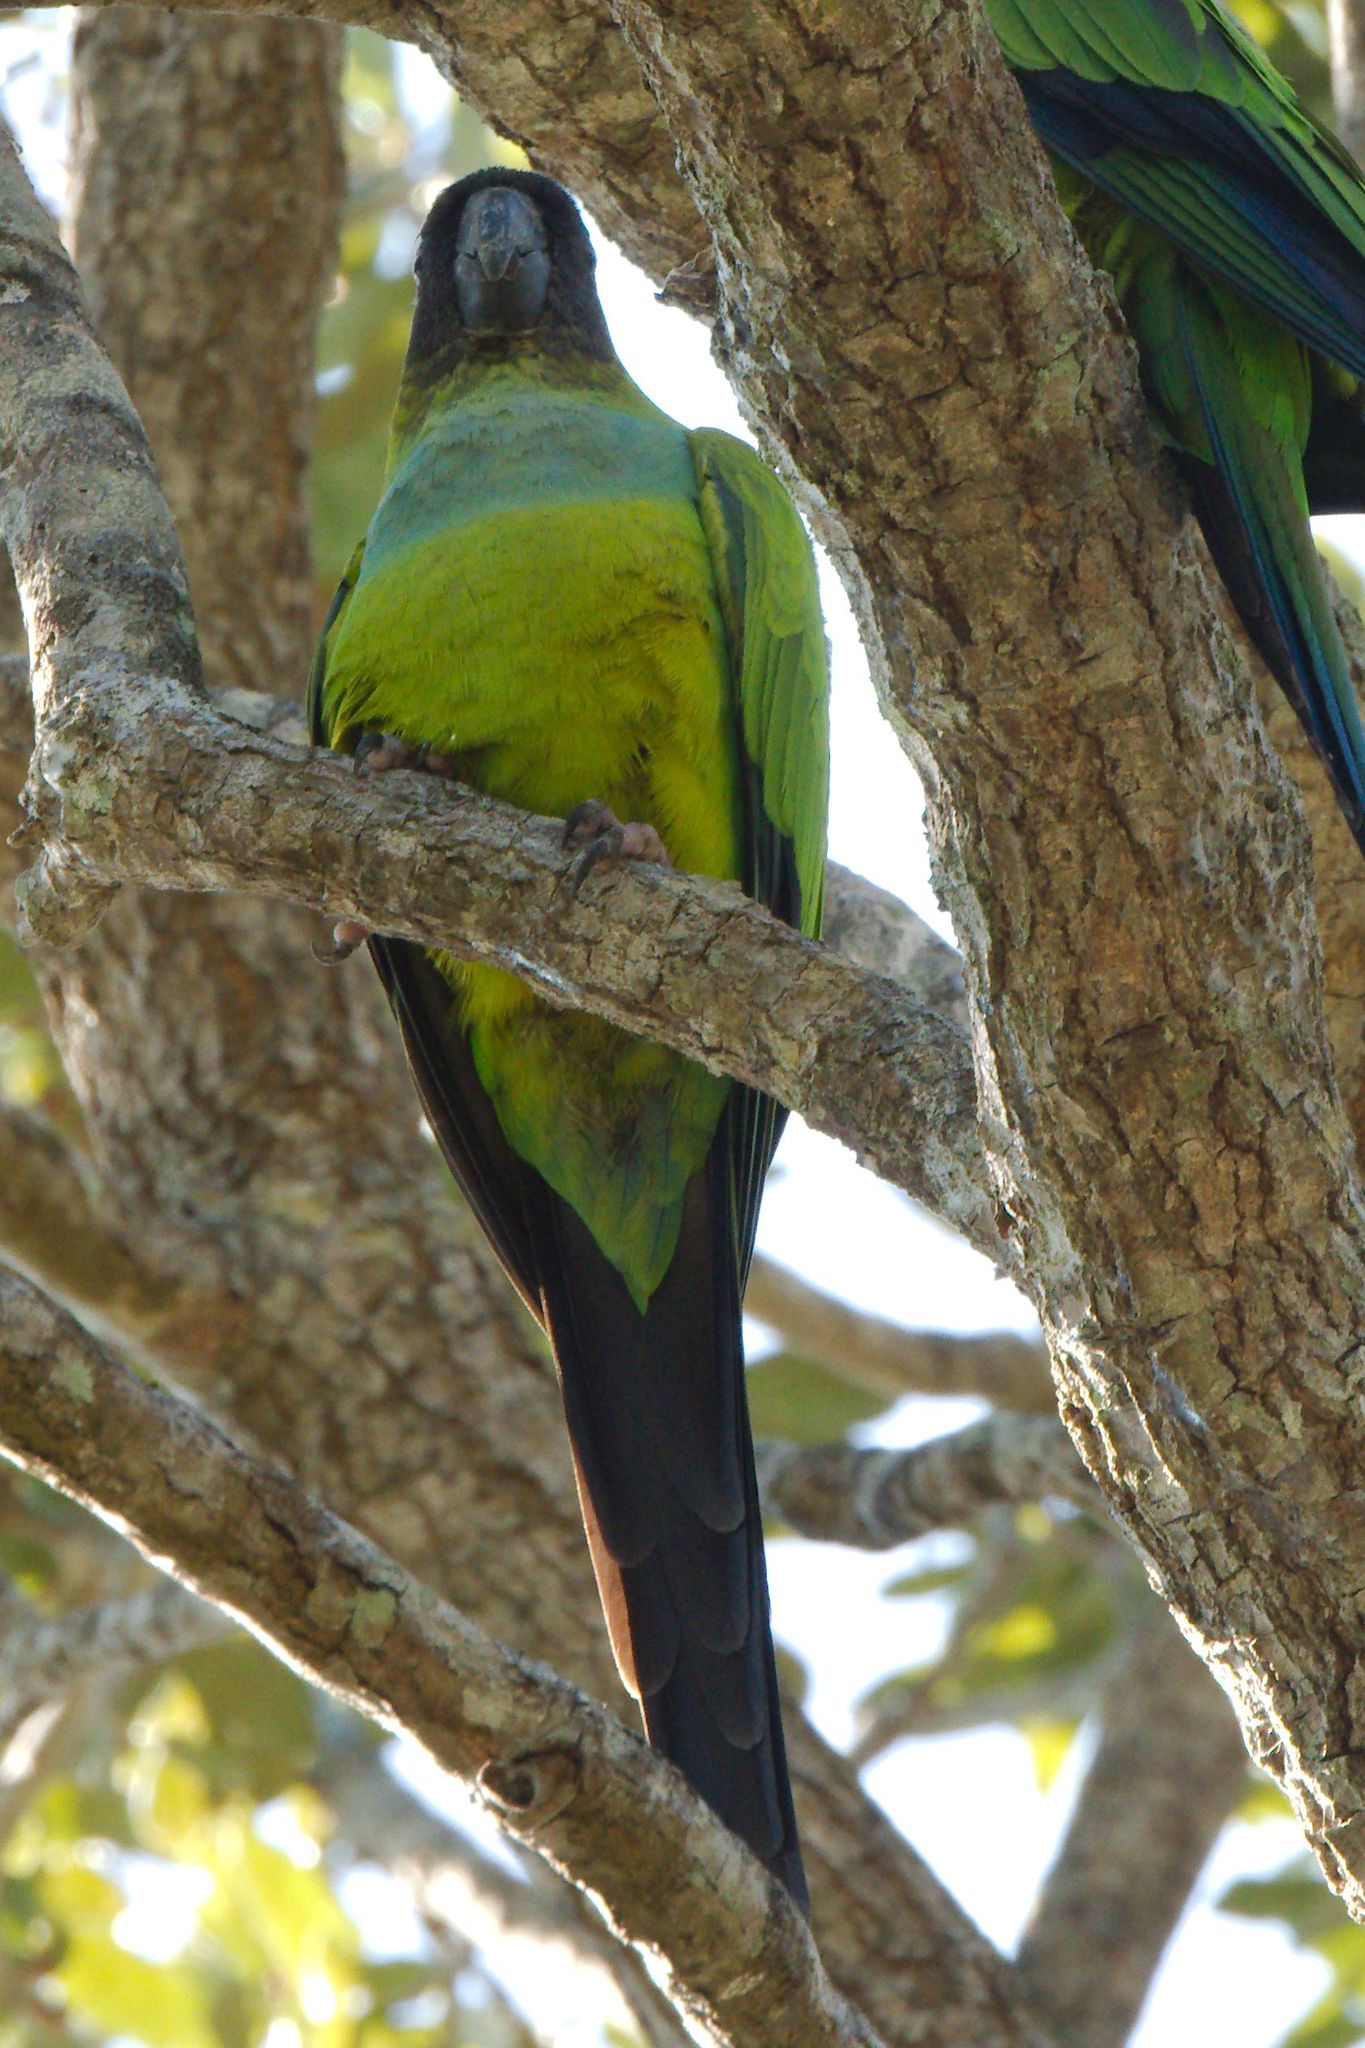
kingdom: Animalia
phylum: Chordata
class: Aves
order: Psittaciformes
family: Psittacidae
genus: Nandayus
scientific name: Nandayus nenday
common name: Nanday parakeet
